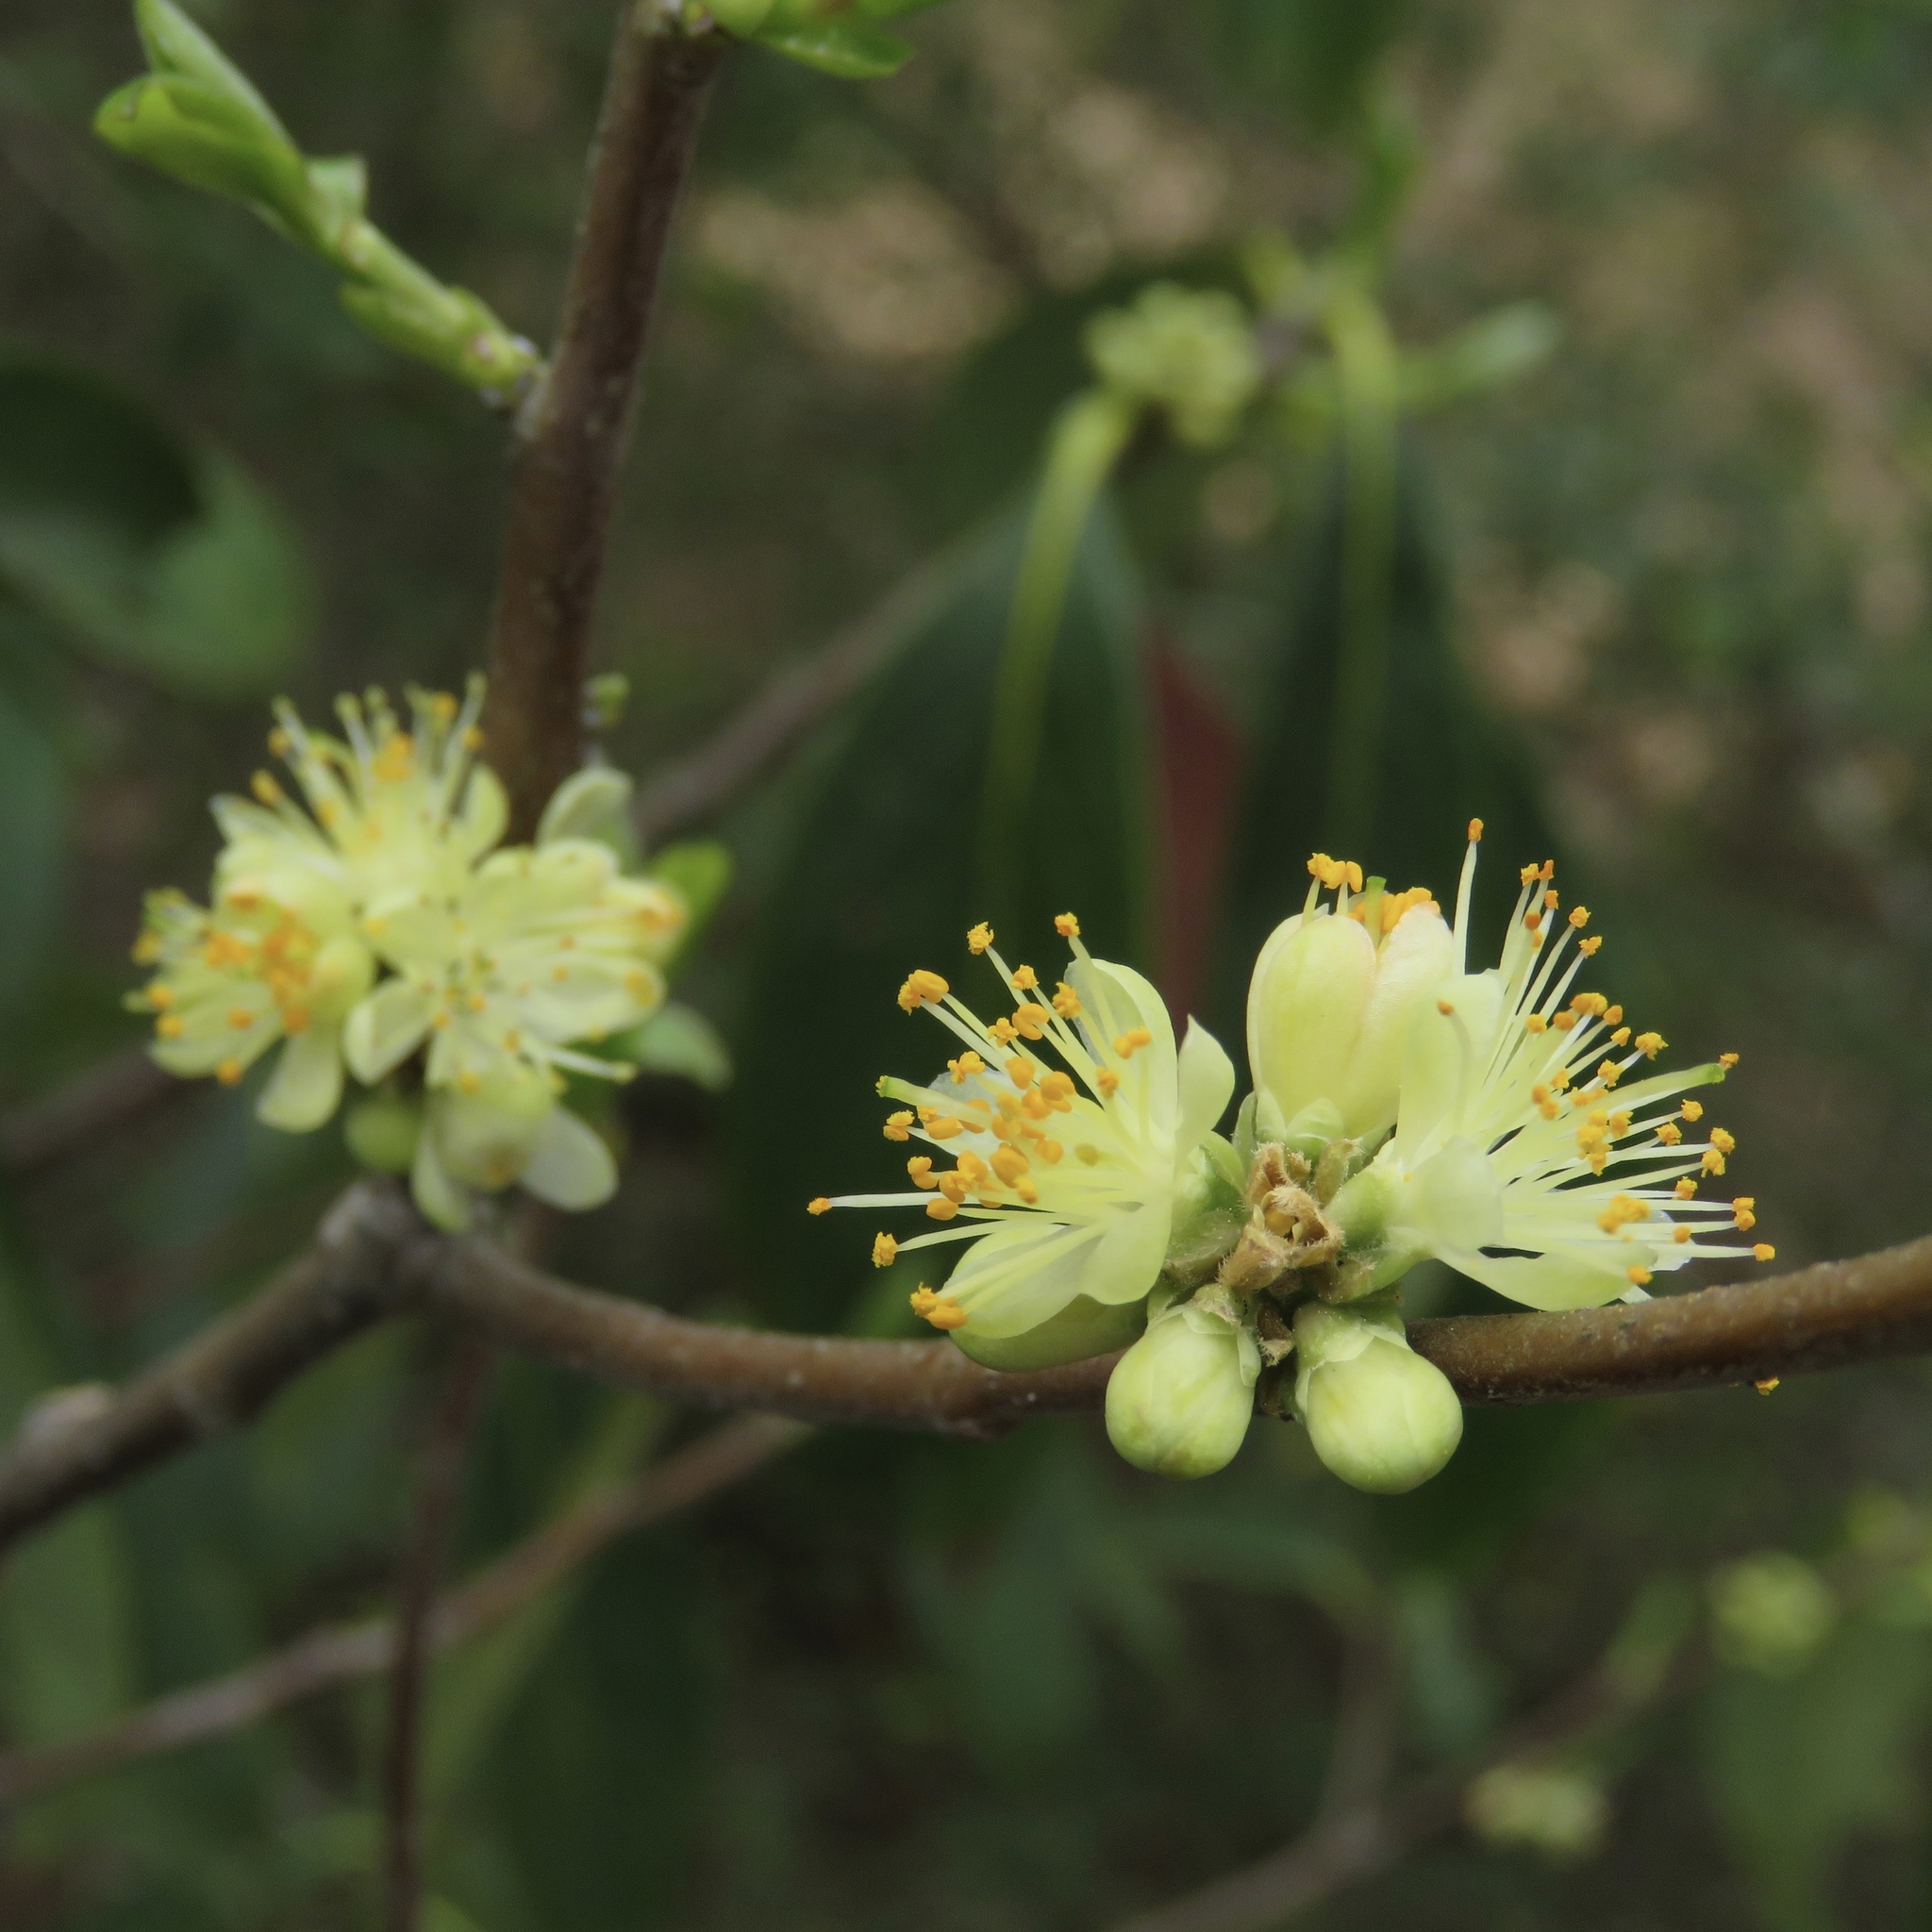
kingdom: Plantae
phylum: Tracheophyta
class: Magnoliopsida
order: Ericales
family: Symplocaceae
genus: Symplocos
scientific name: Symplocos tinctoria
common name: Horse-sugar
